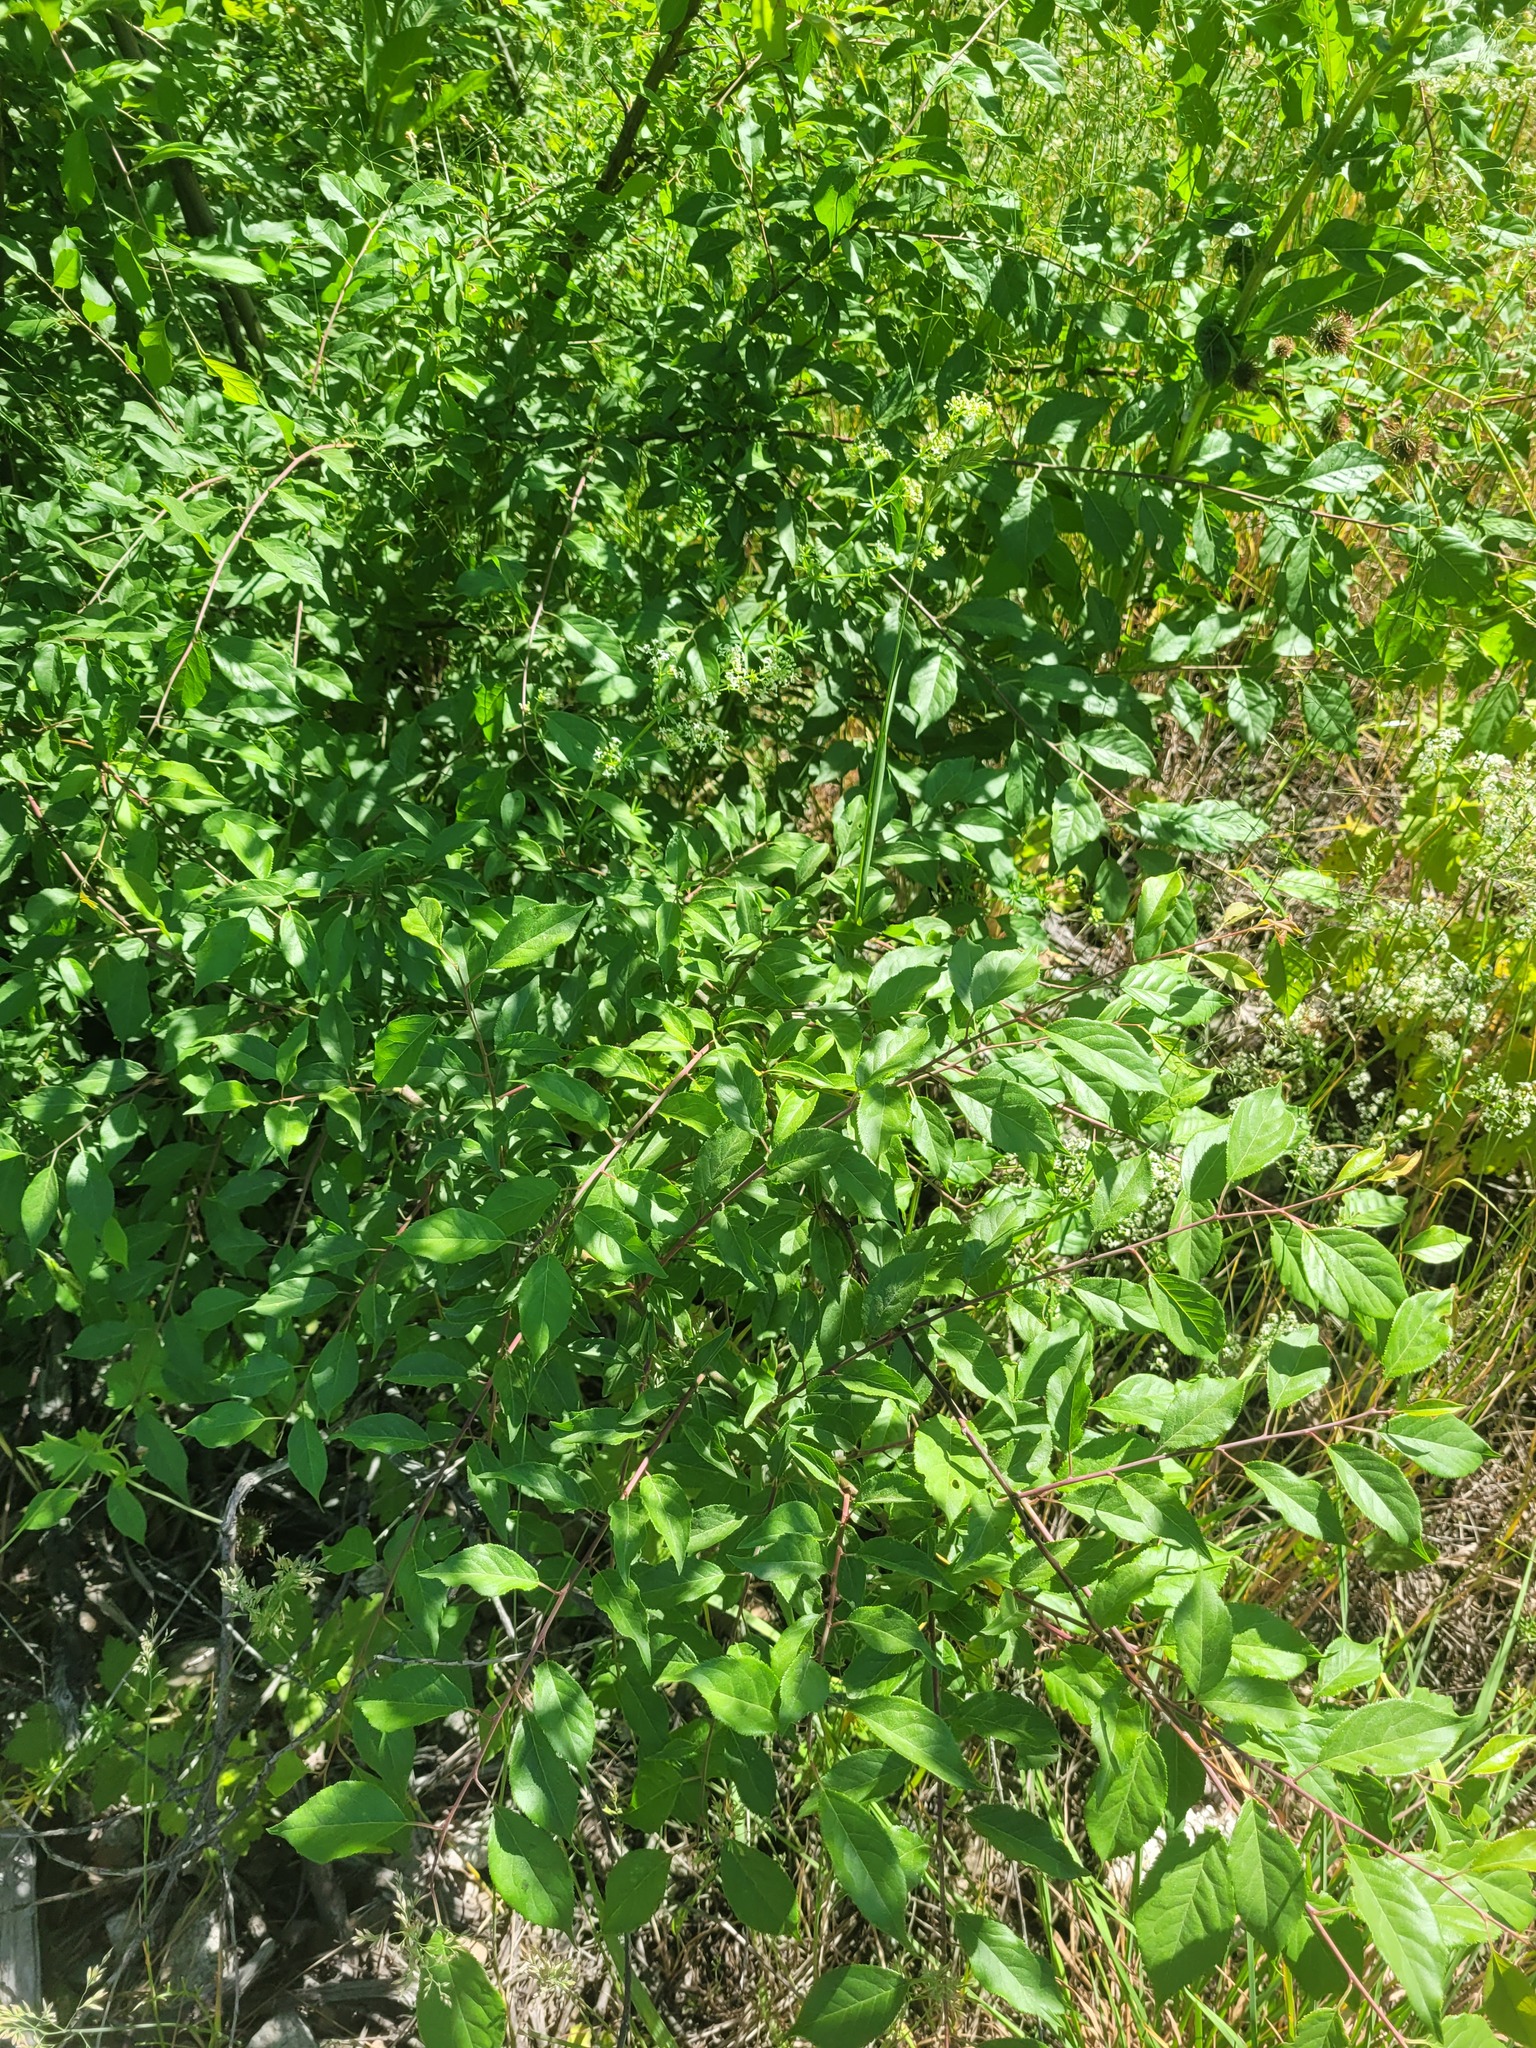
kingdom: Plantae
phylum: Tracheophyta
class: Magnoliopsida
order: Rosales
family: Rosaceae
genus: Prunus
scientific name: Prunus cerasifera
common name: Cherry plum
